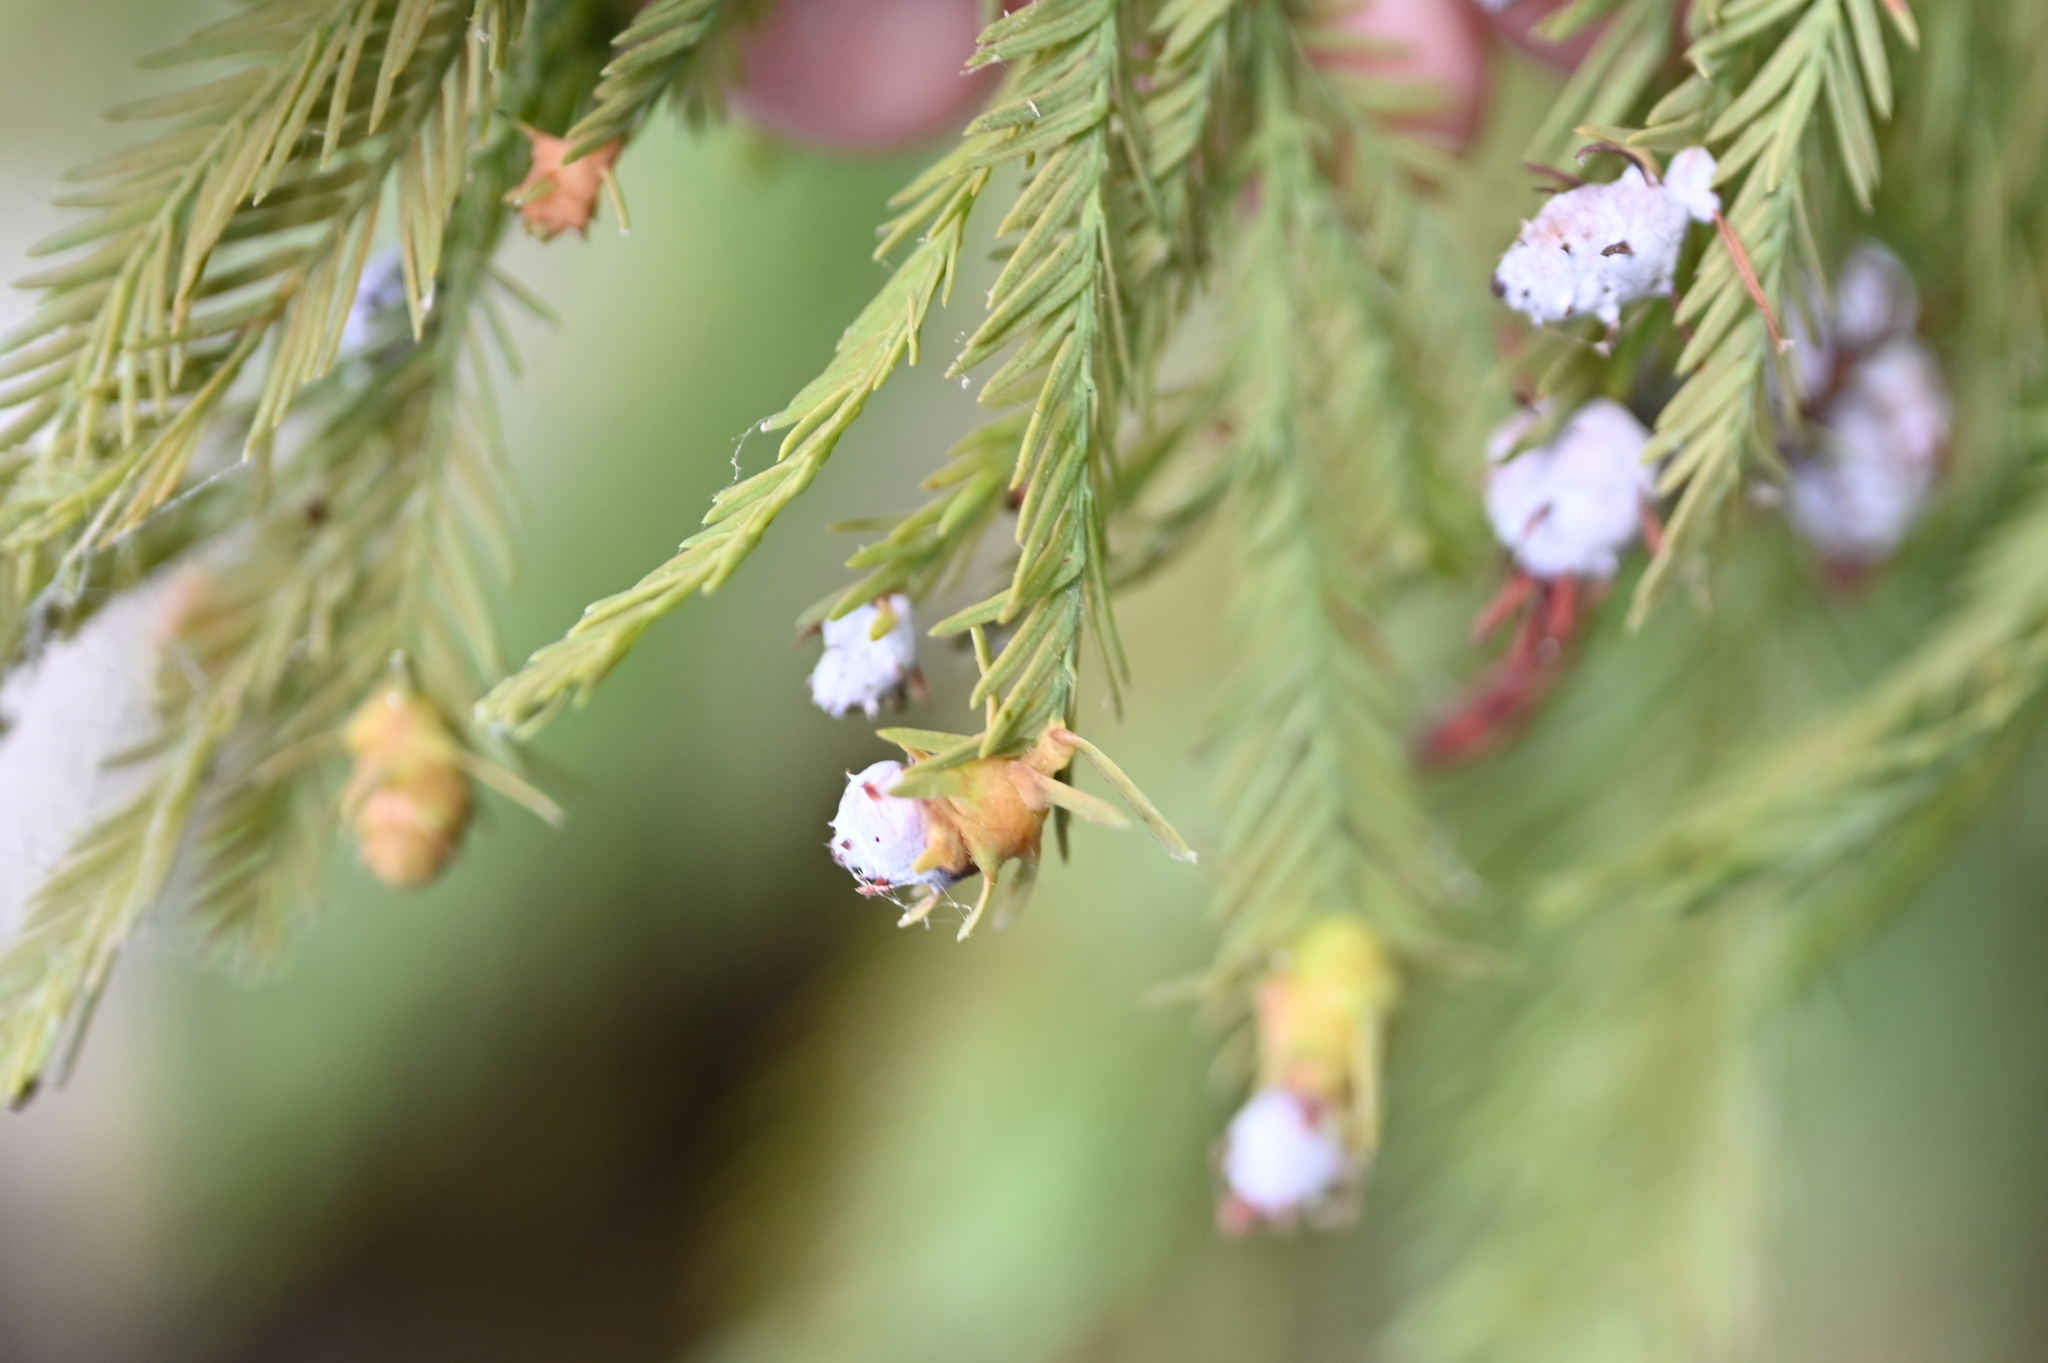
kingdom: Animalia
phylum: Arthropoda
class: Insecta
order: Diptera
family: Cecidomyiidae
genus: Taxodiomyia
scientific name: Taxodiomyia cupressiananassa
